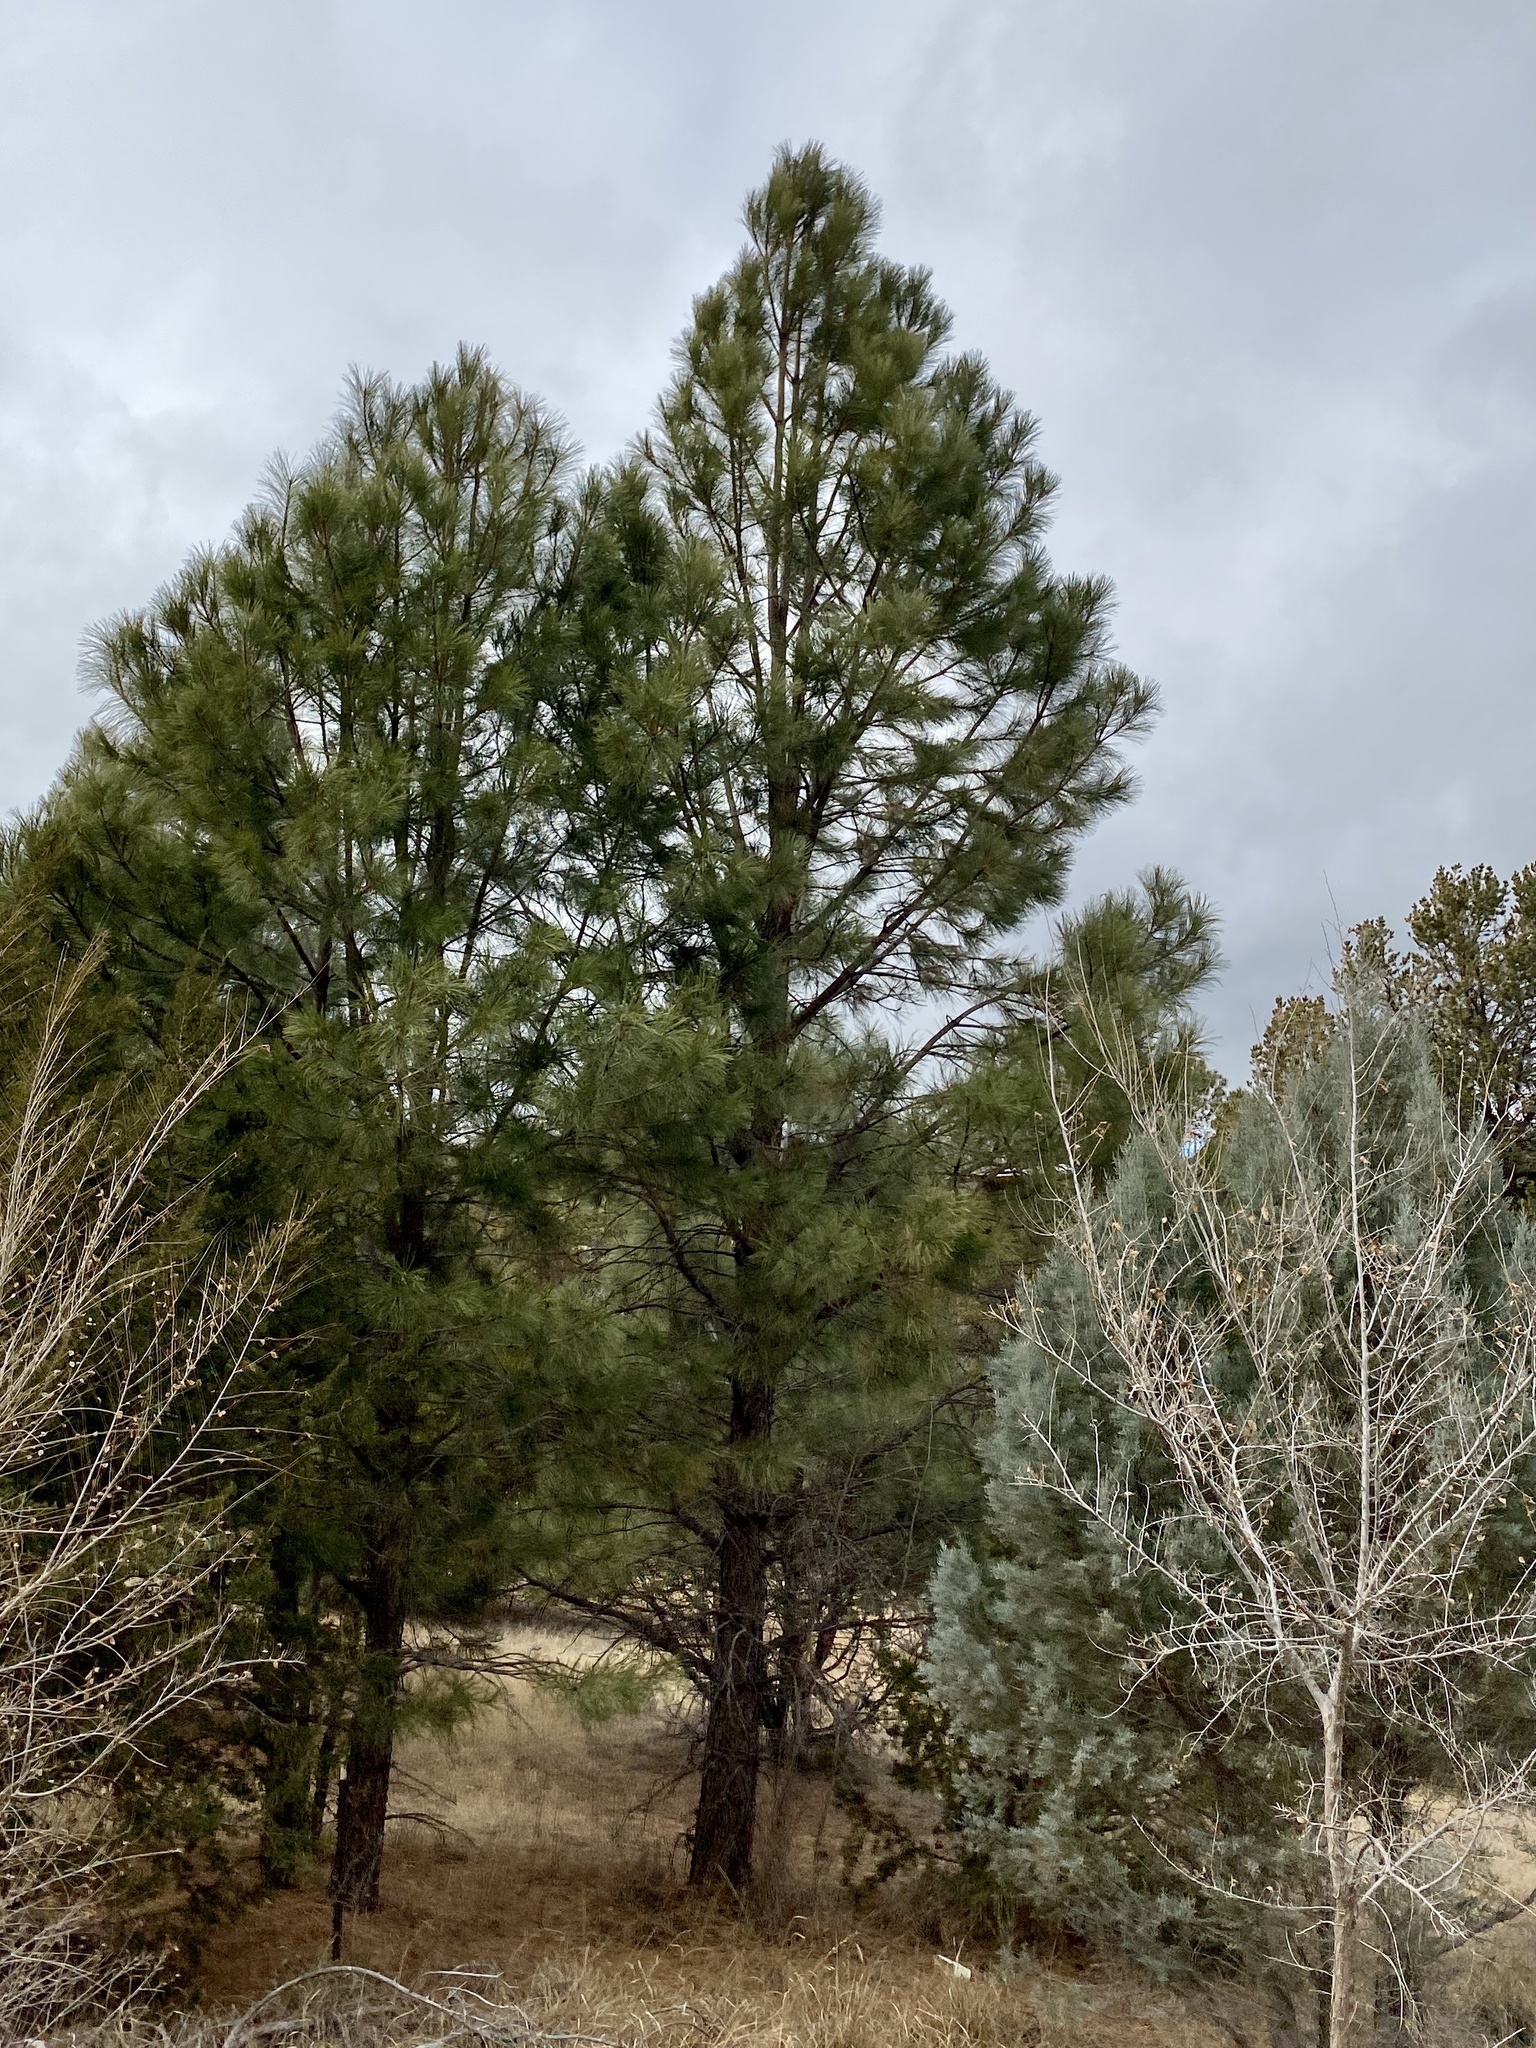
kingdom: Plantae
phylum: Tracheophyta
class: Pinopsida
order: Pinales
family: Pinaceae
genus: Pinus
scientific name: Pinus ponderosa
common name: Western yellow-pine
